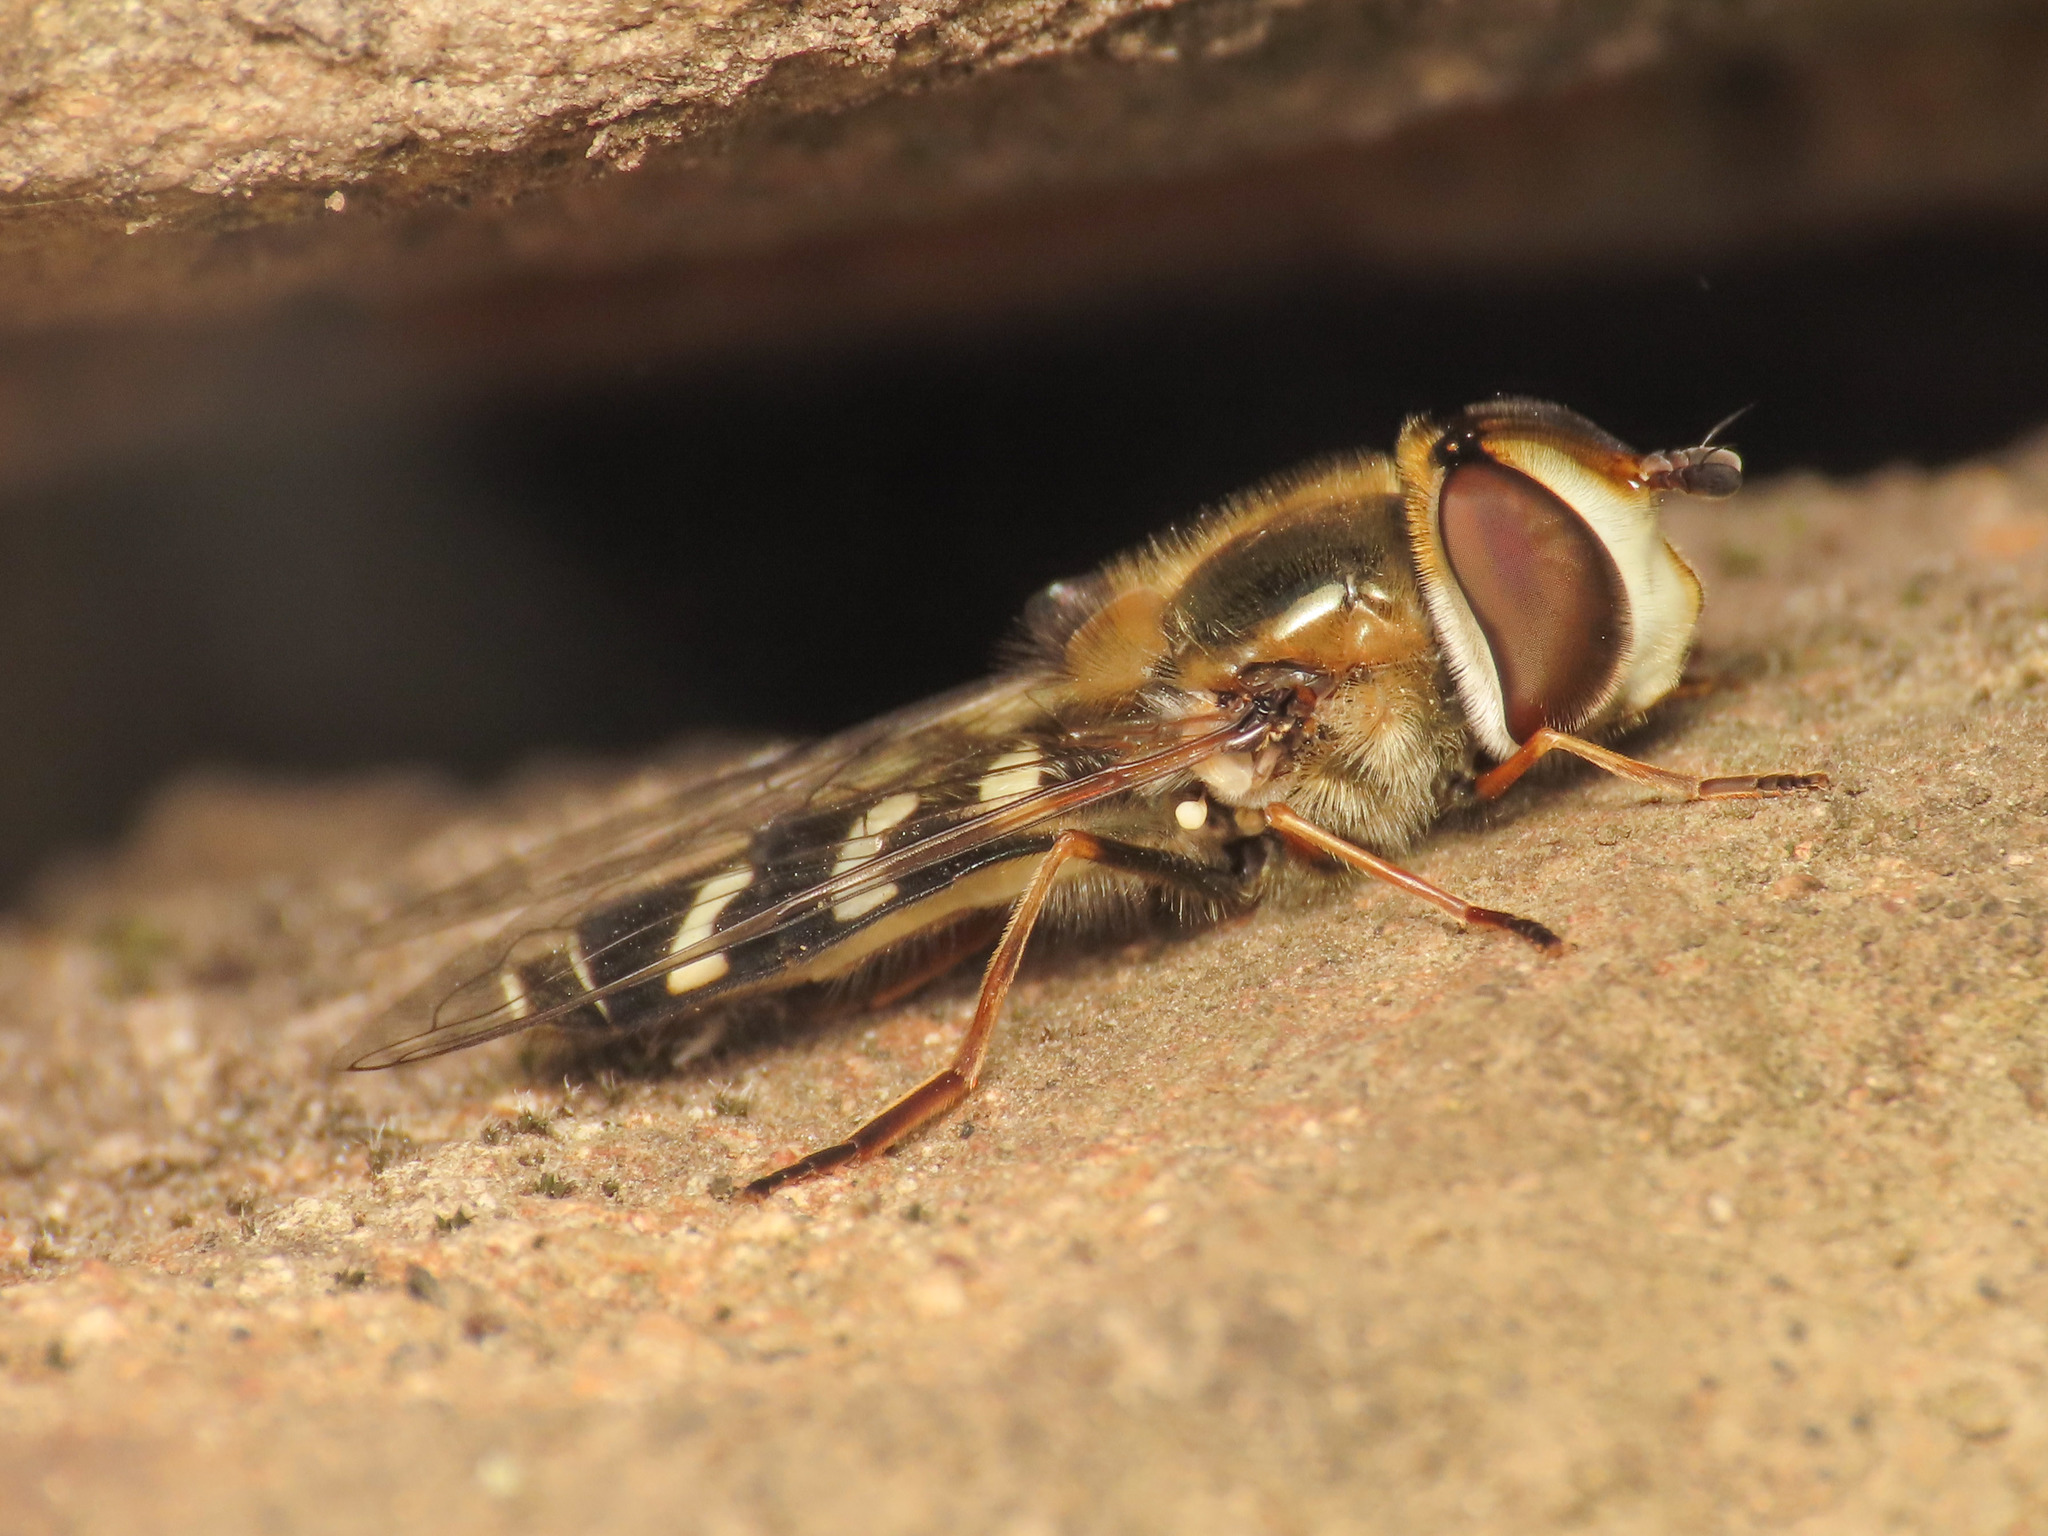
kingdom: Animalia
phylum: Arthropoda
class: Insecta
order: Diptera
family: Syrphidae
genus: Scaeva
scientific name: Scaeva pyrastri
